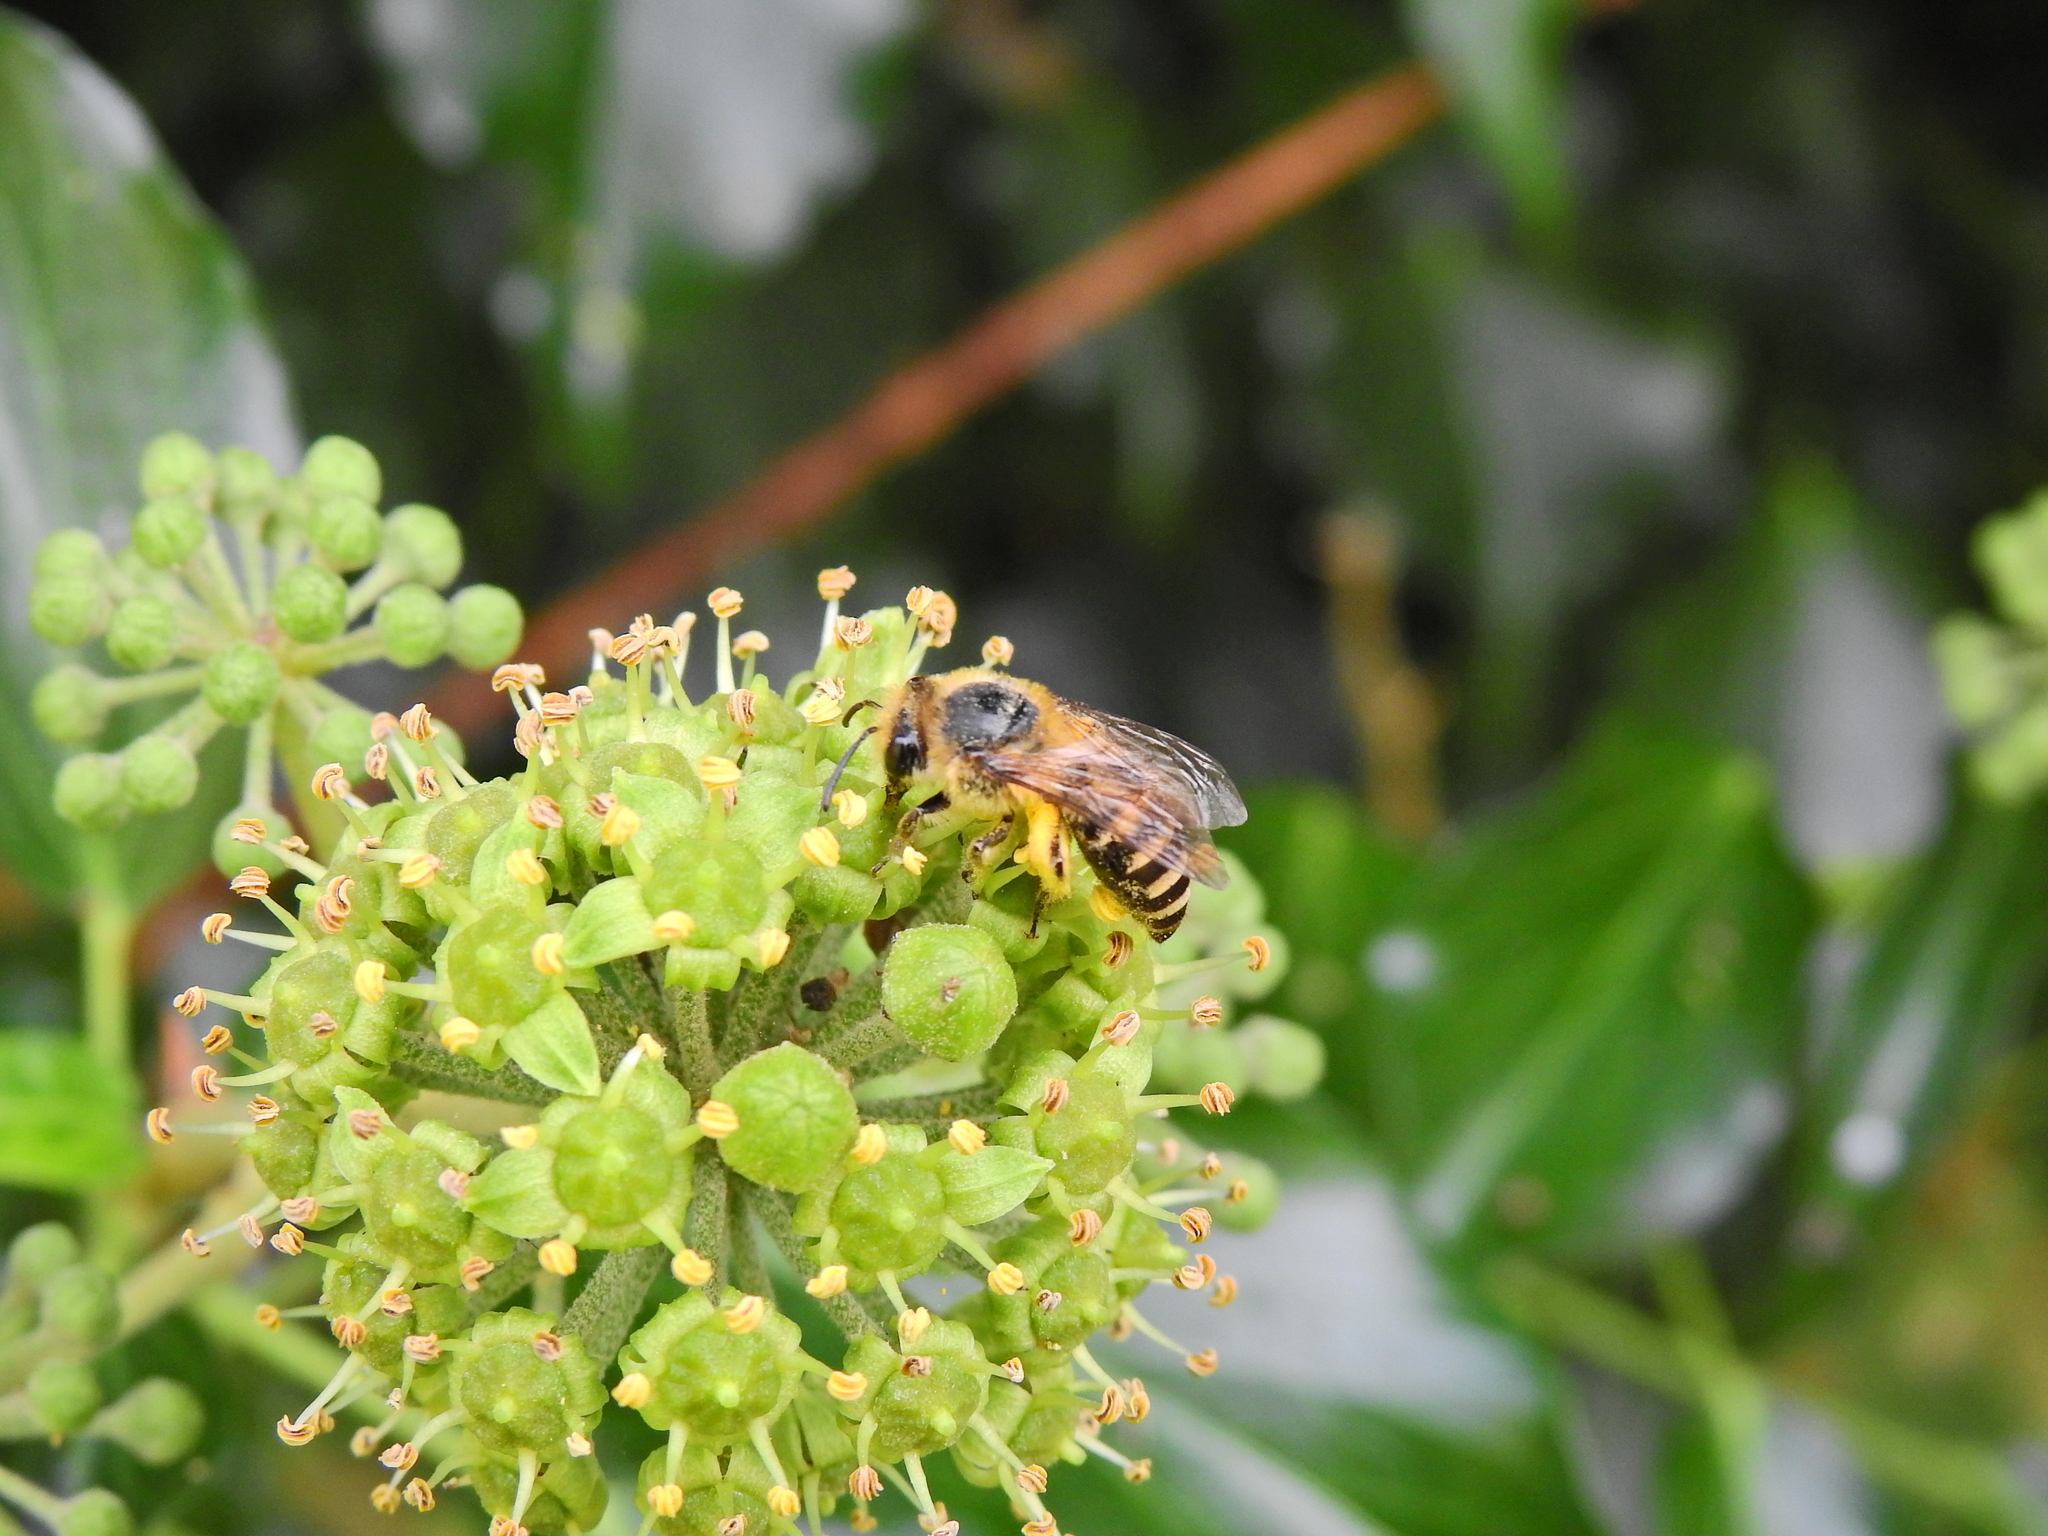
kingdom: Animalia
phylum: Arthropoda
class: Insecta
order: Hymenoptera
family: Colletidae
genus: Colletes
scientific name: Colletes hederae
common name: Ivy bee
